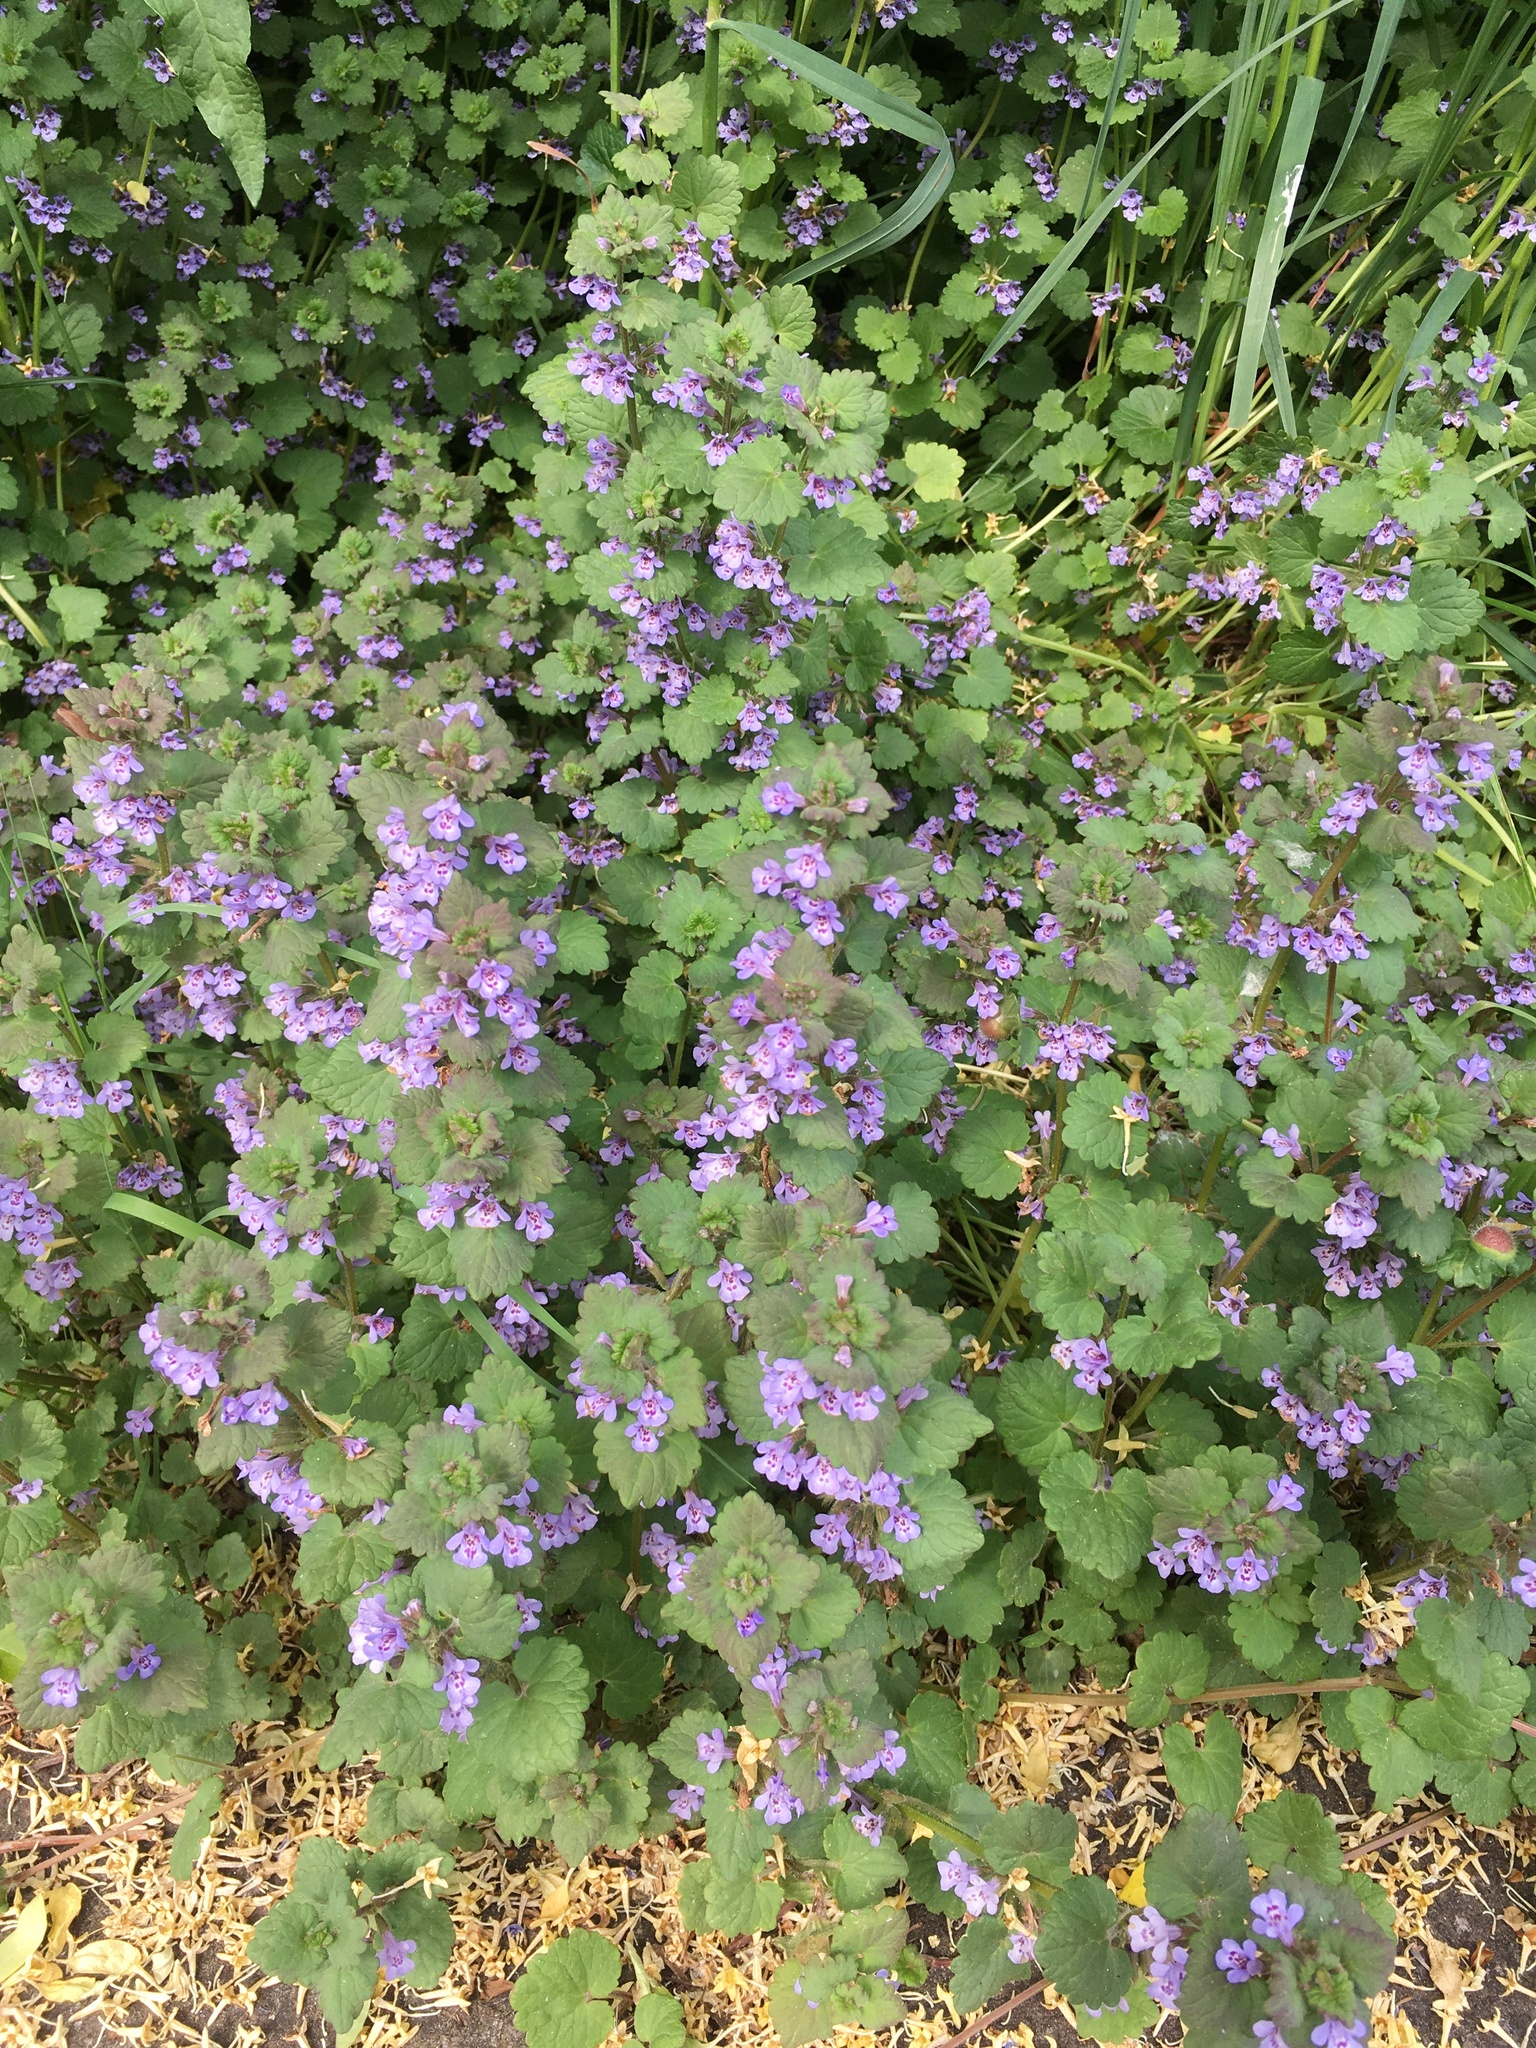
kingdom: Plantae
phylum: Tracheophyta
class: Magnoliopsida
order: Lamiales
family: Lamiaceae
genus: Glechoma
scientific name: Glechoma hederacea
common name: Ground ivy
